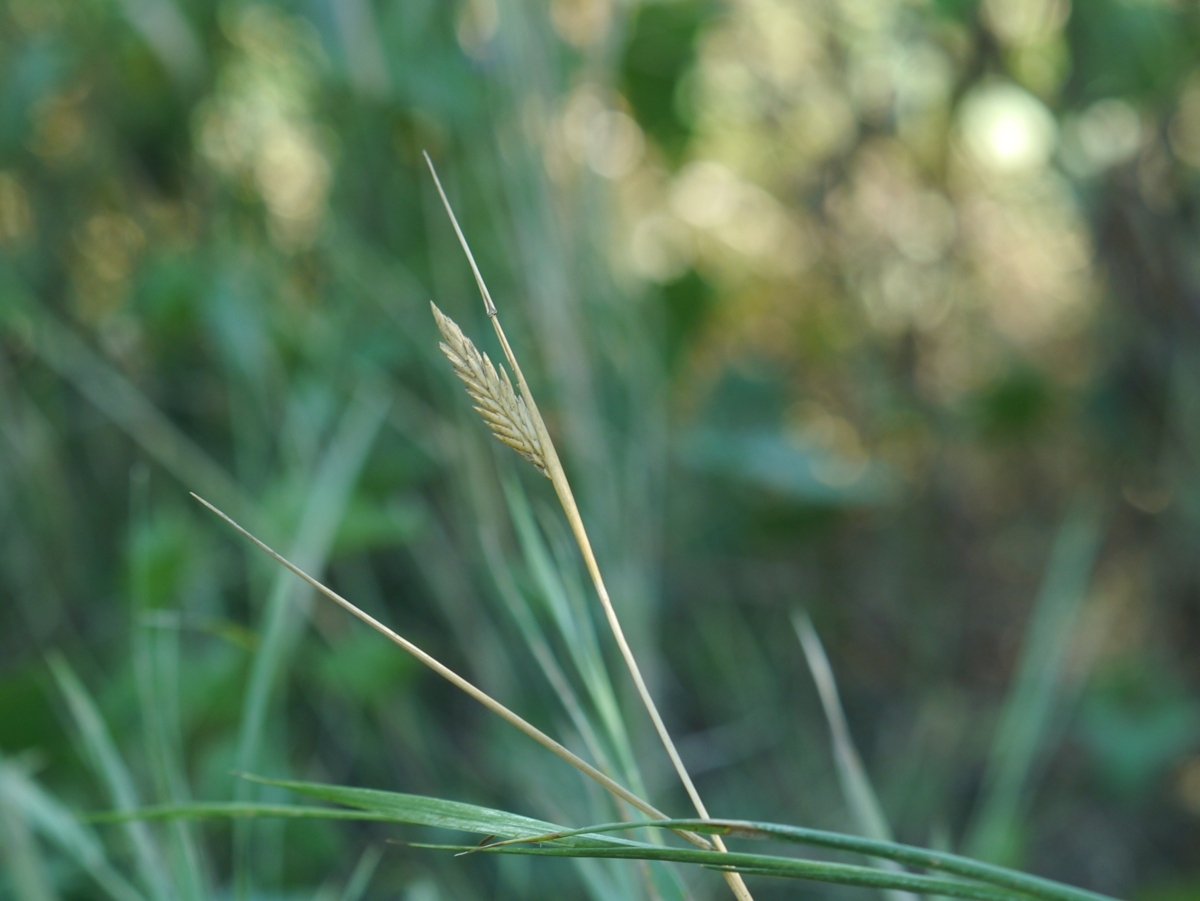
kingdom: Plantae
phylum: Tracheophyta
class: Liliopsida
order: Poales
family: Poaceae
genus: Agropyron
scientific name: Agropyron cristatum
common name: Crested wheatgrass
